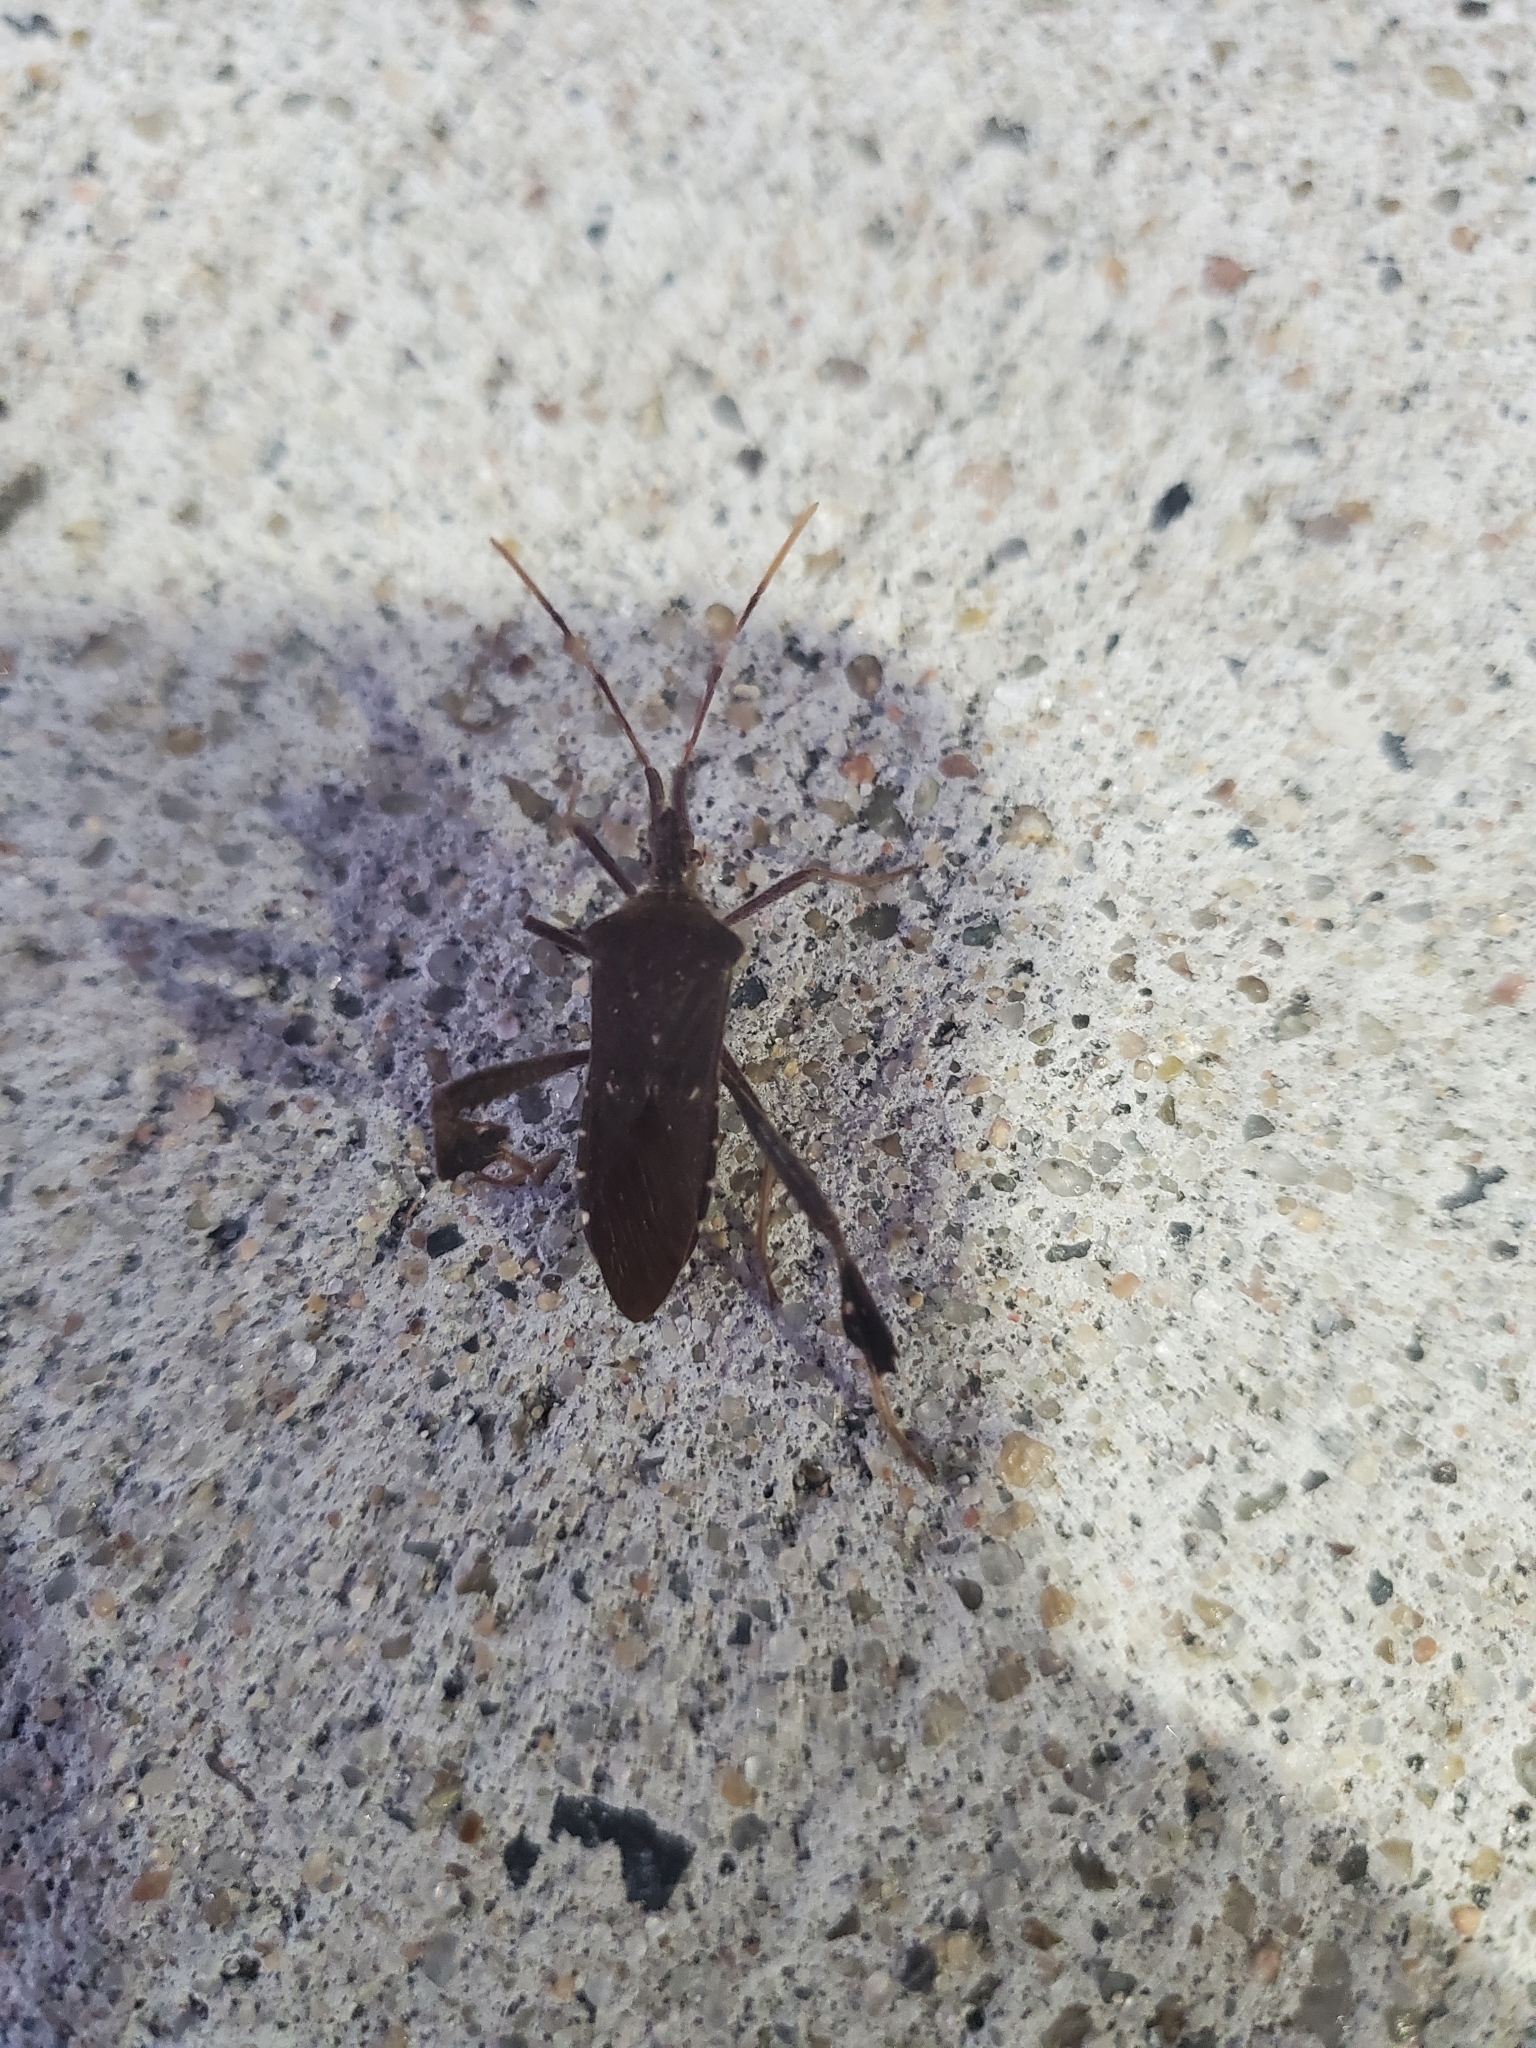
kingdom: Animalia
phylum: Arthropoda
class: Insecta
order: Hemiptera
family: Coreidae
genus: Leptoglossus
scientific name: Leptoglossus oppositus
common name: Northern leaf-footed bug
